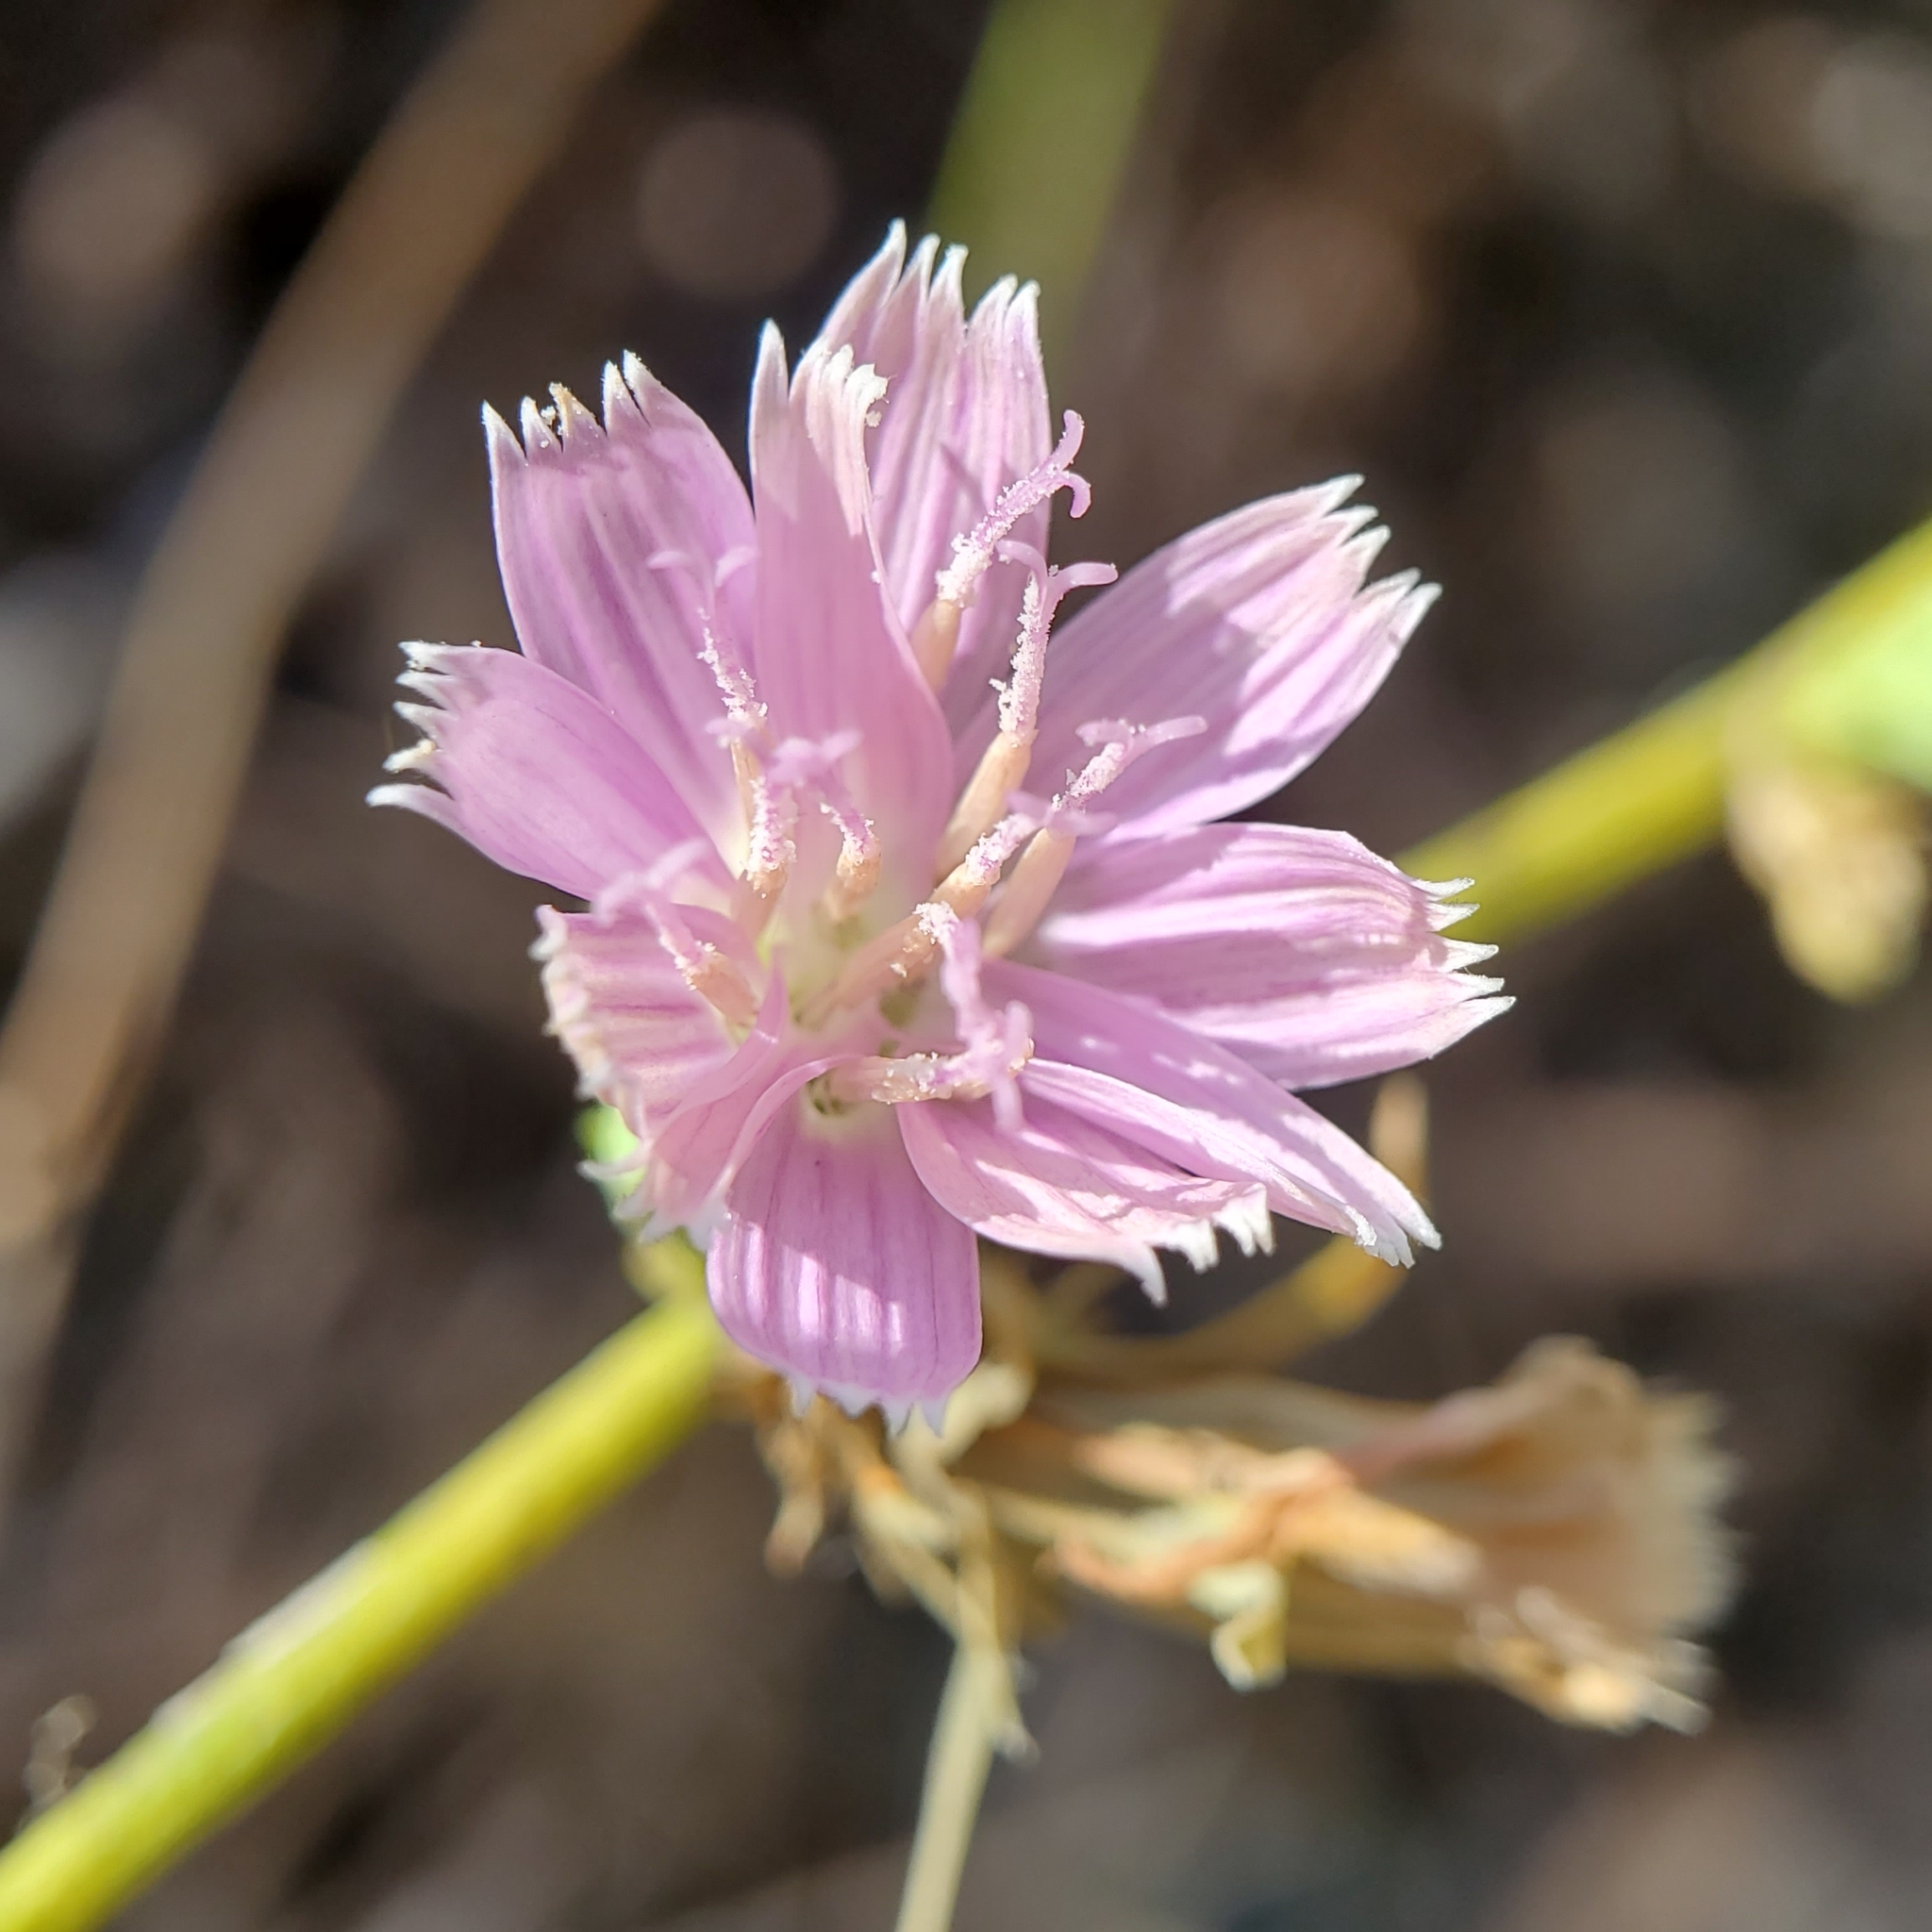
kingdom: Plantae
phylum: Tracheophyta
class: Magnoliopsida
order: Asterales
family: Asteraceae
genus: Stephanomeria
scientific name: Stephanomeria cichoriacea
